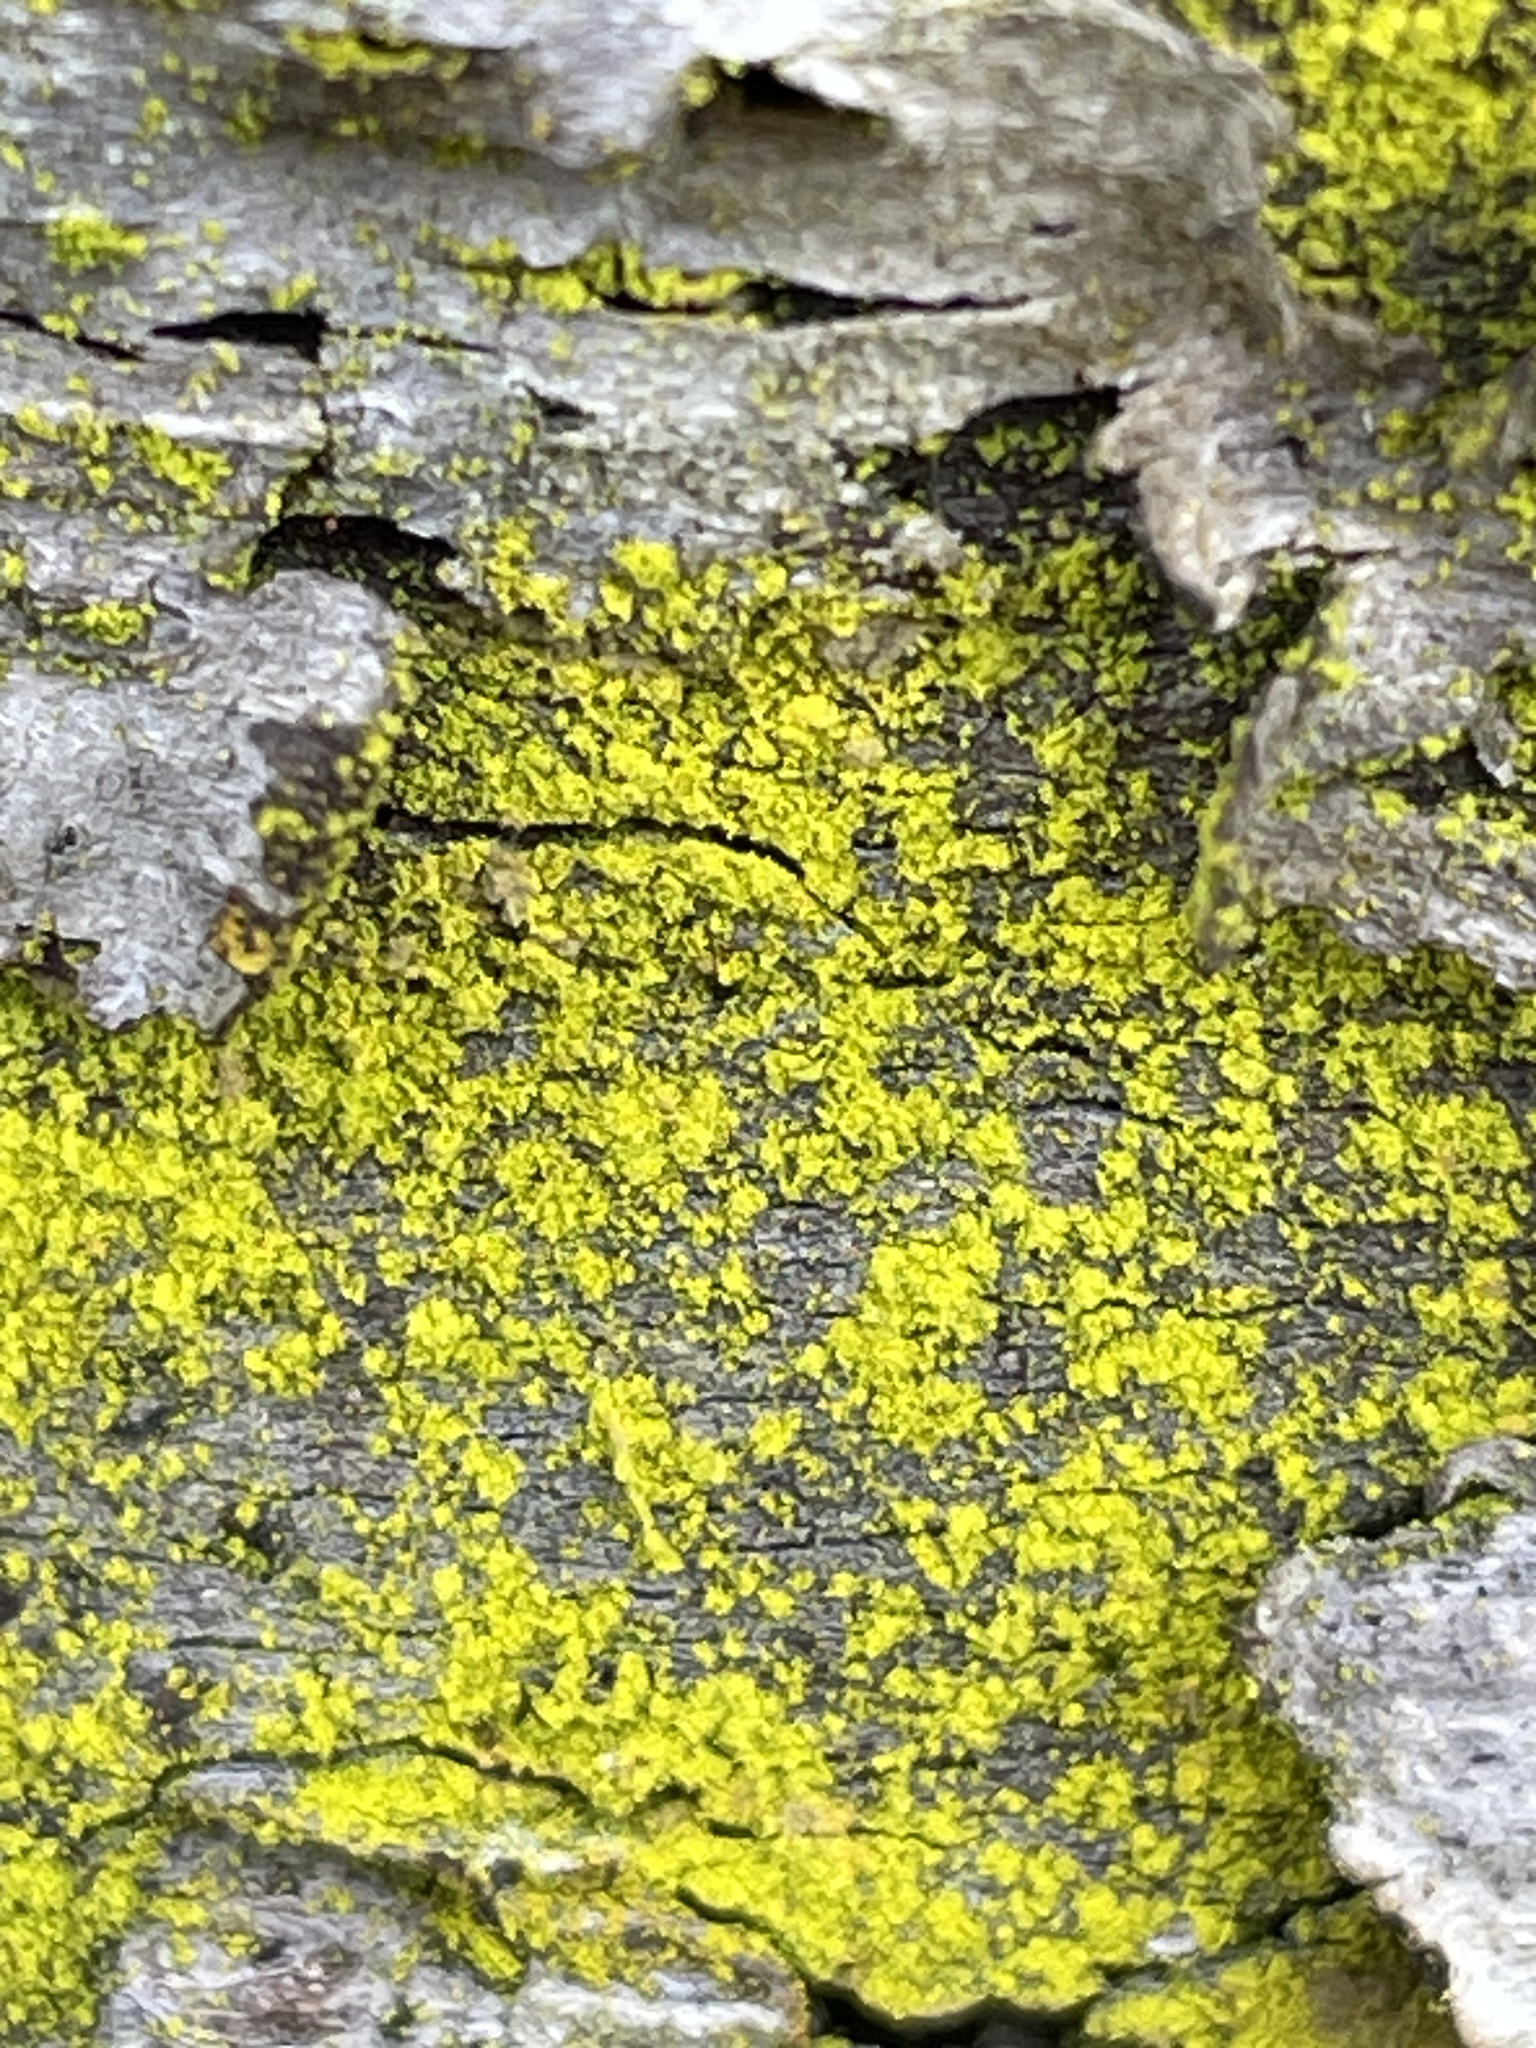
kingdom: Fungi
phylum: Ascomycota
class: Arthoniomycetes
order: Arthoniales
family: Chrysotrichaceae
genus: Chrysothrix
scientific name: Chrysothrix candelaris
